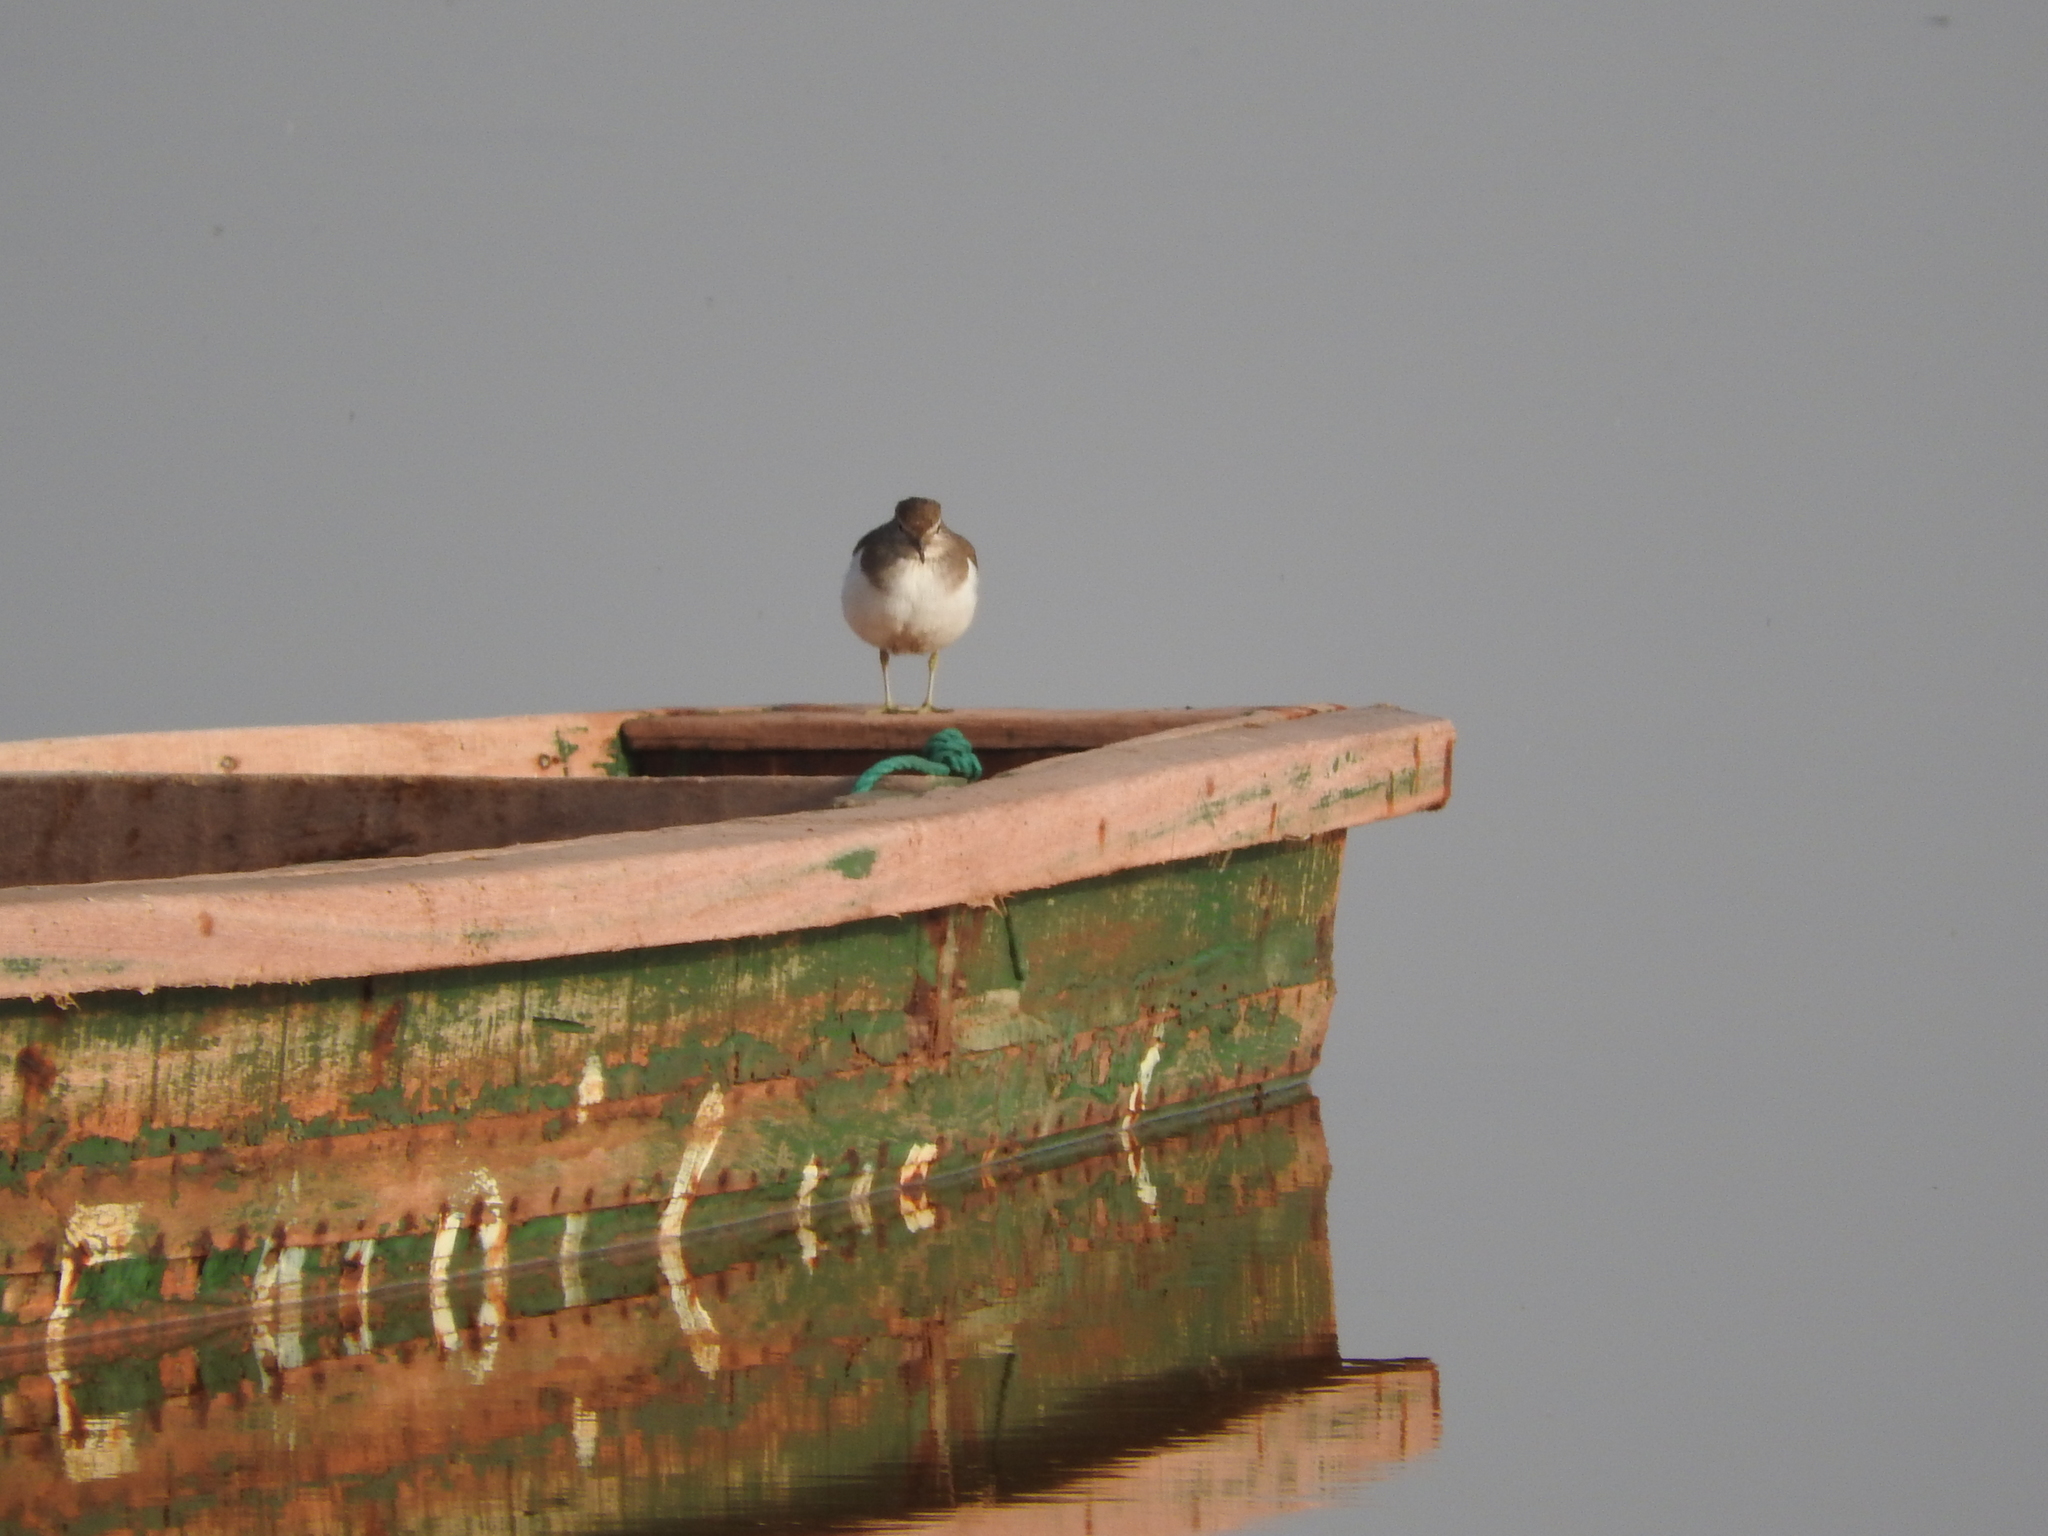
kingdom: Animalia
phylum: Chordata
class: Aves
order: Charadriiformes
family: Scolopacidae
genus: Actitis
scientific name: Actitis hypoleucos
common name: Common sandpiper
